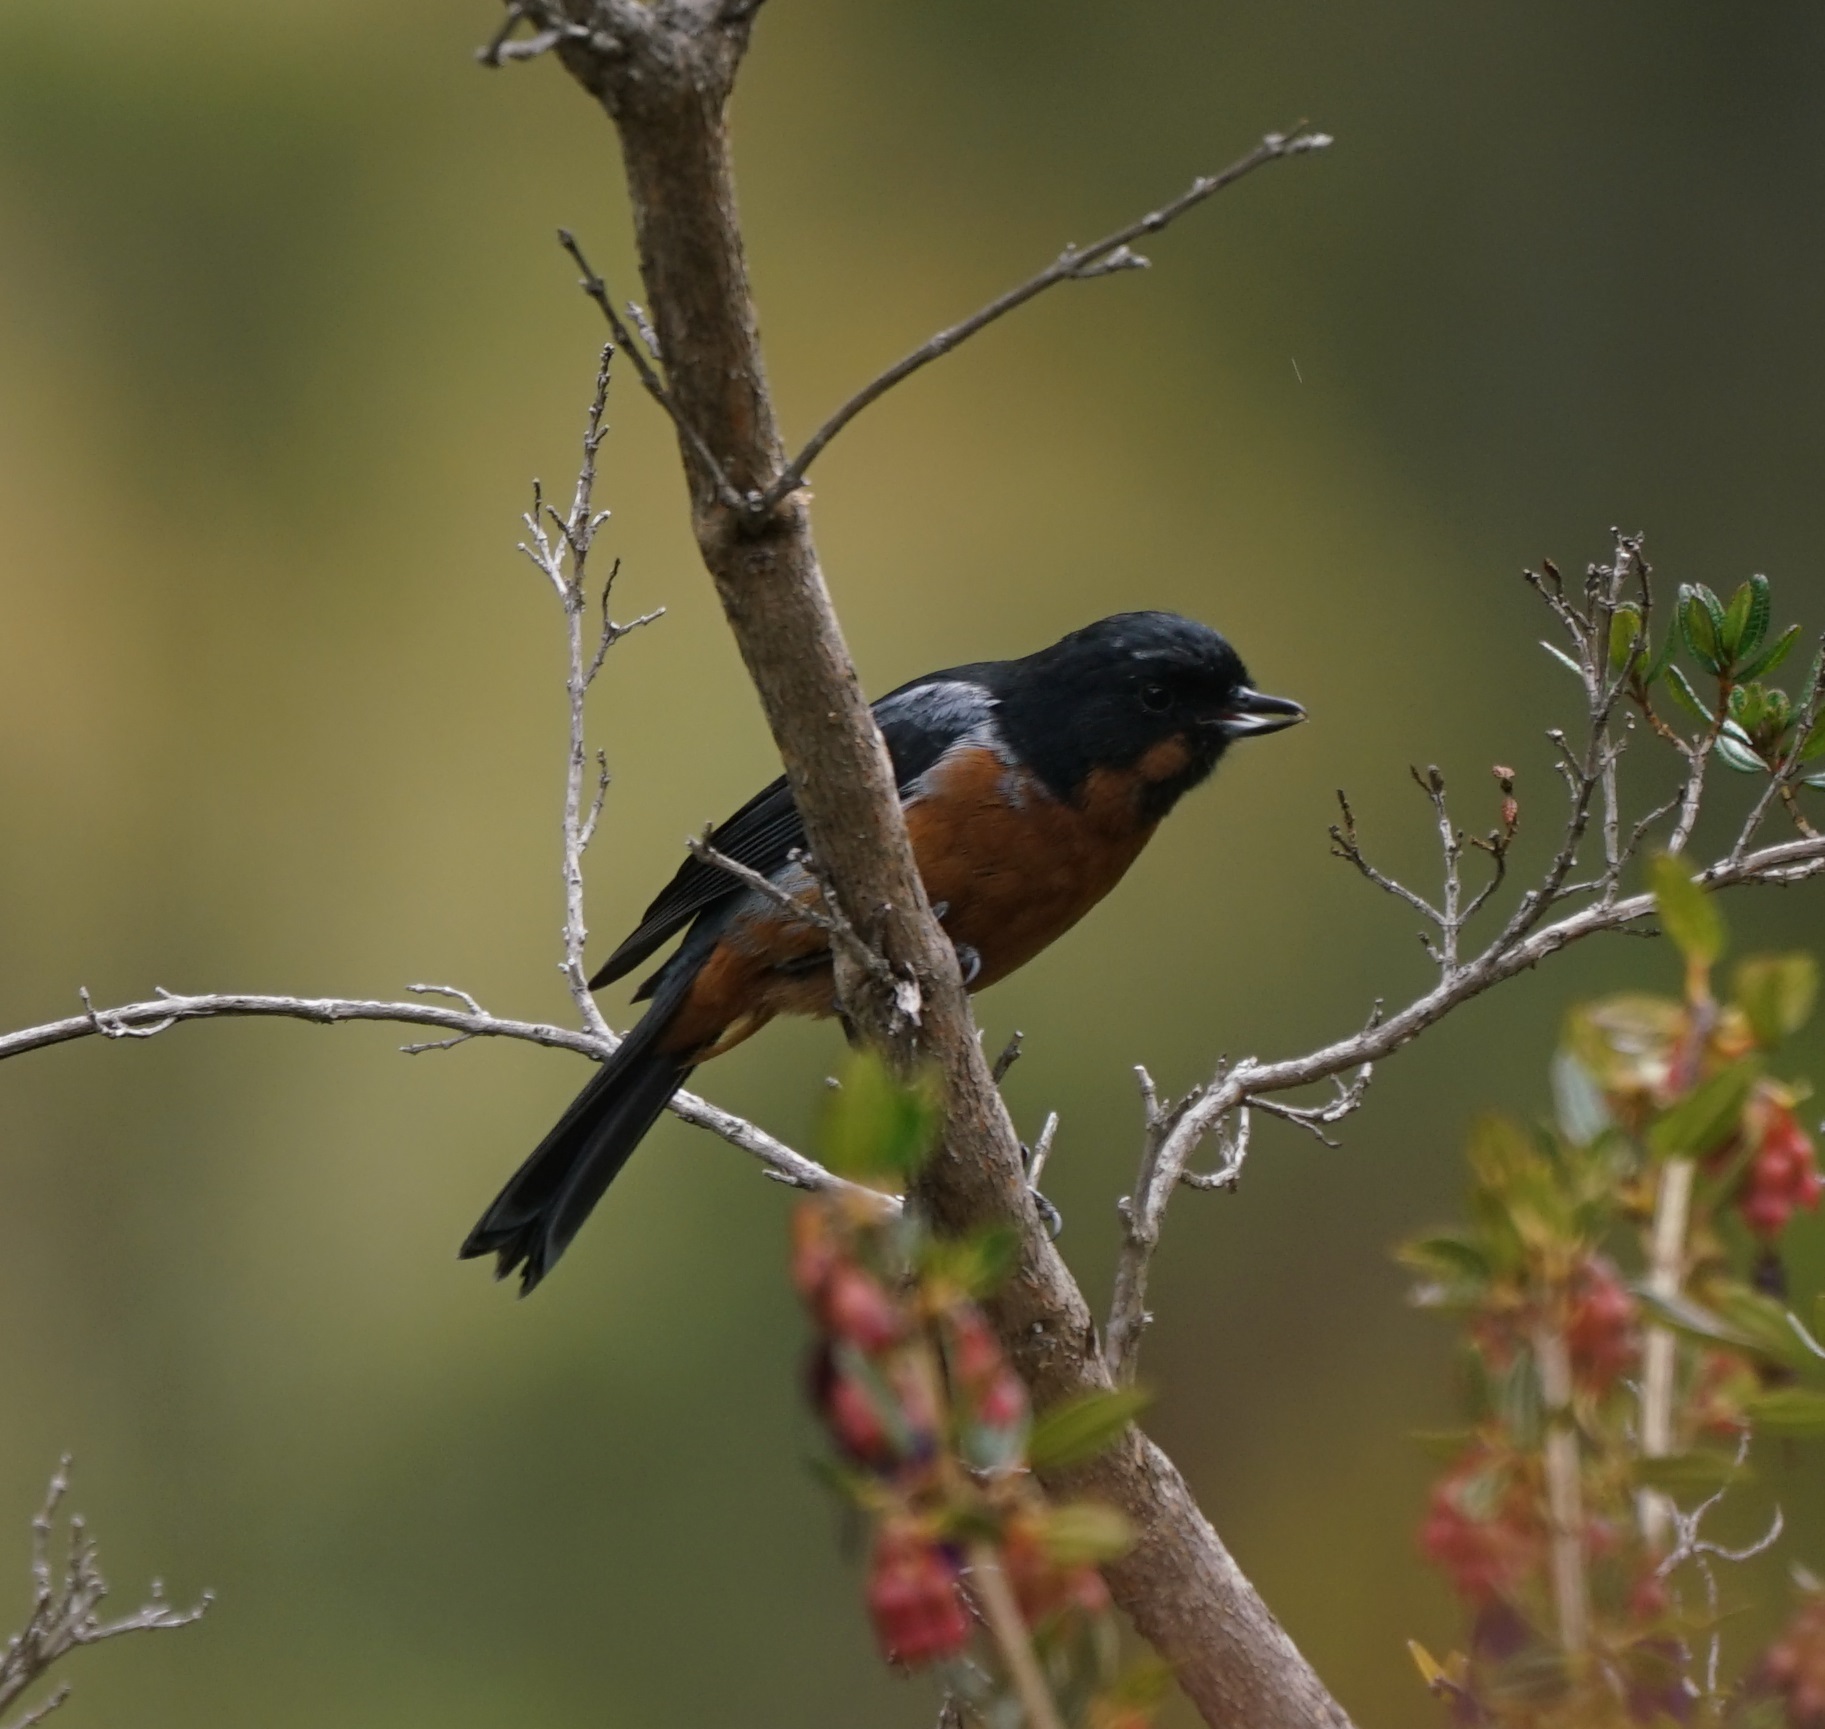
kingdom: Animalia
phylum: Chordata
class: Aves
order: Passeriformes
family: Thraupidae
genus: Diglossa
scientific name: Diglossa brunneiventris
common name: Black-throated flowerpiercer
